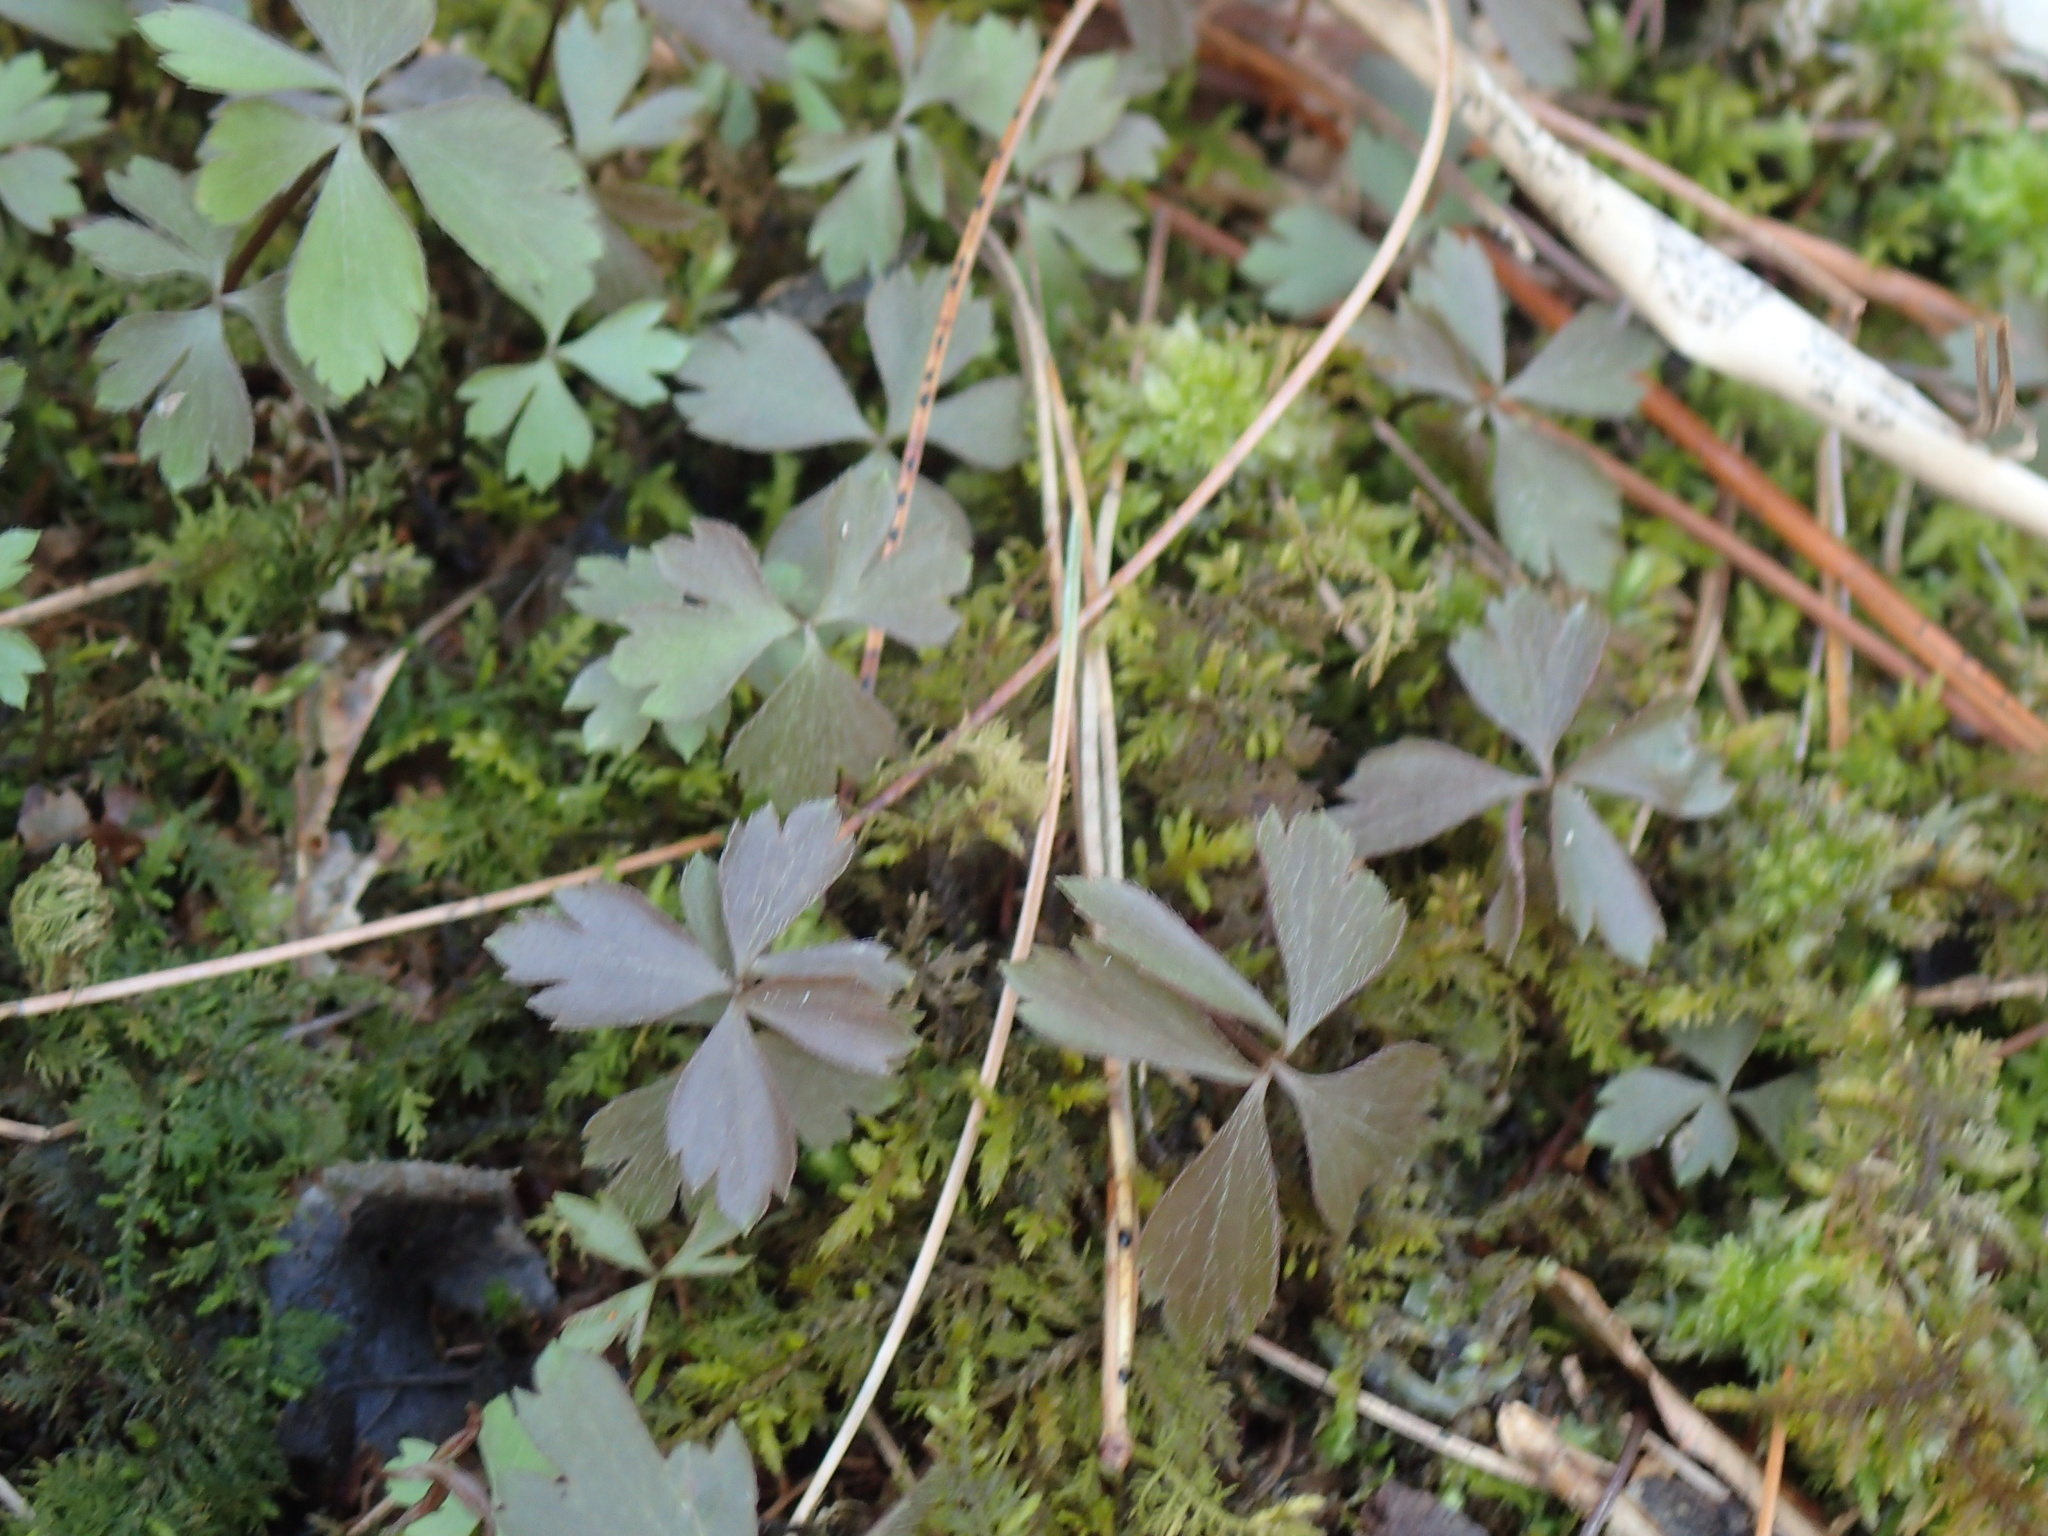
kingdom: Plantae
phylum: Tracheophyta
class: Magnoliopsida
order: Ranunculales
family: Ranunculaceae
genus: Anemone
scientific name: Anemone quinquefolia
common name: Wood anemone
